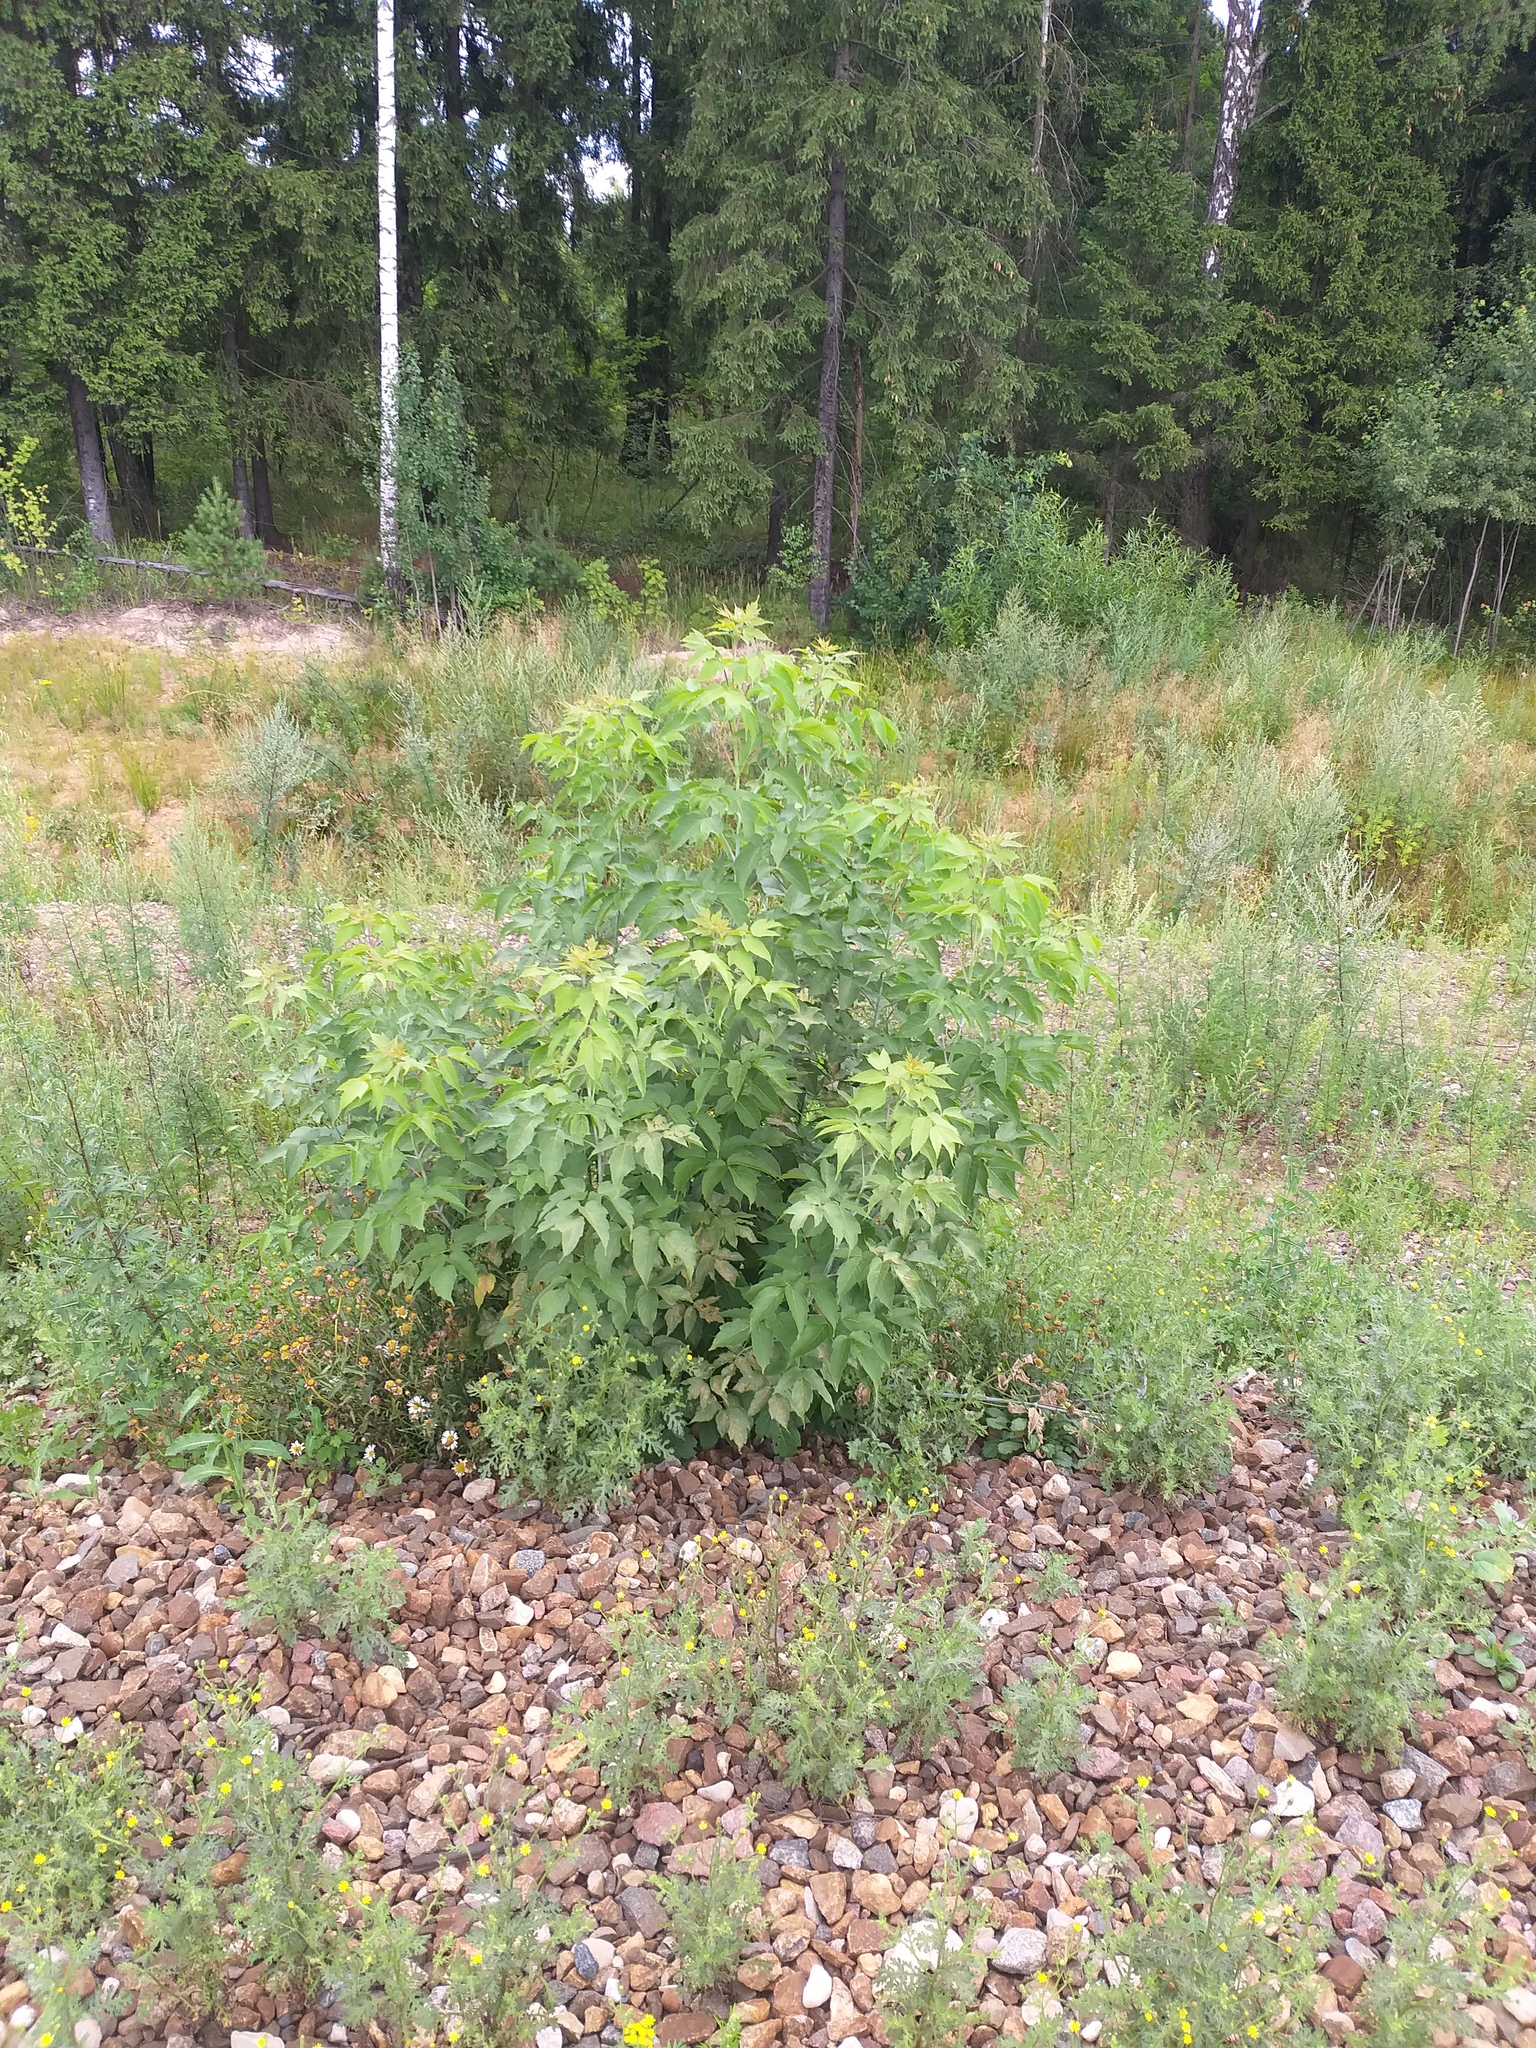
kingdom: Plantae
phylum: Tracheophyta
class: Magnoliopsida
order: Sapindales
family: Sapindaceae
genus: Acer
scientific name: Acer negundo
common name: Ashleaf maple
